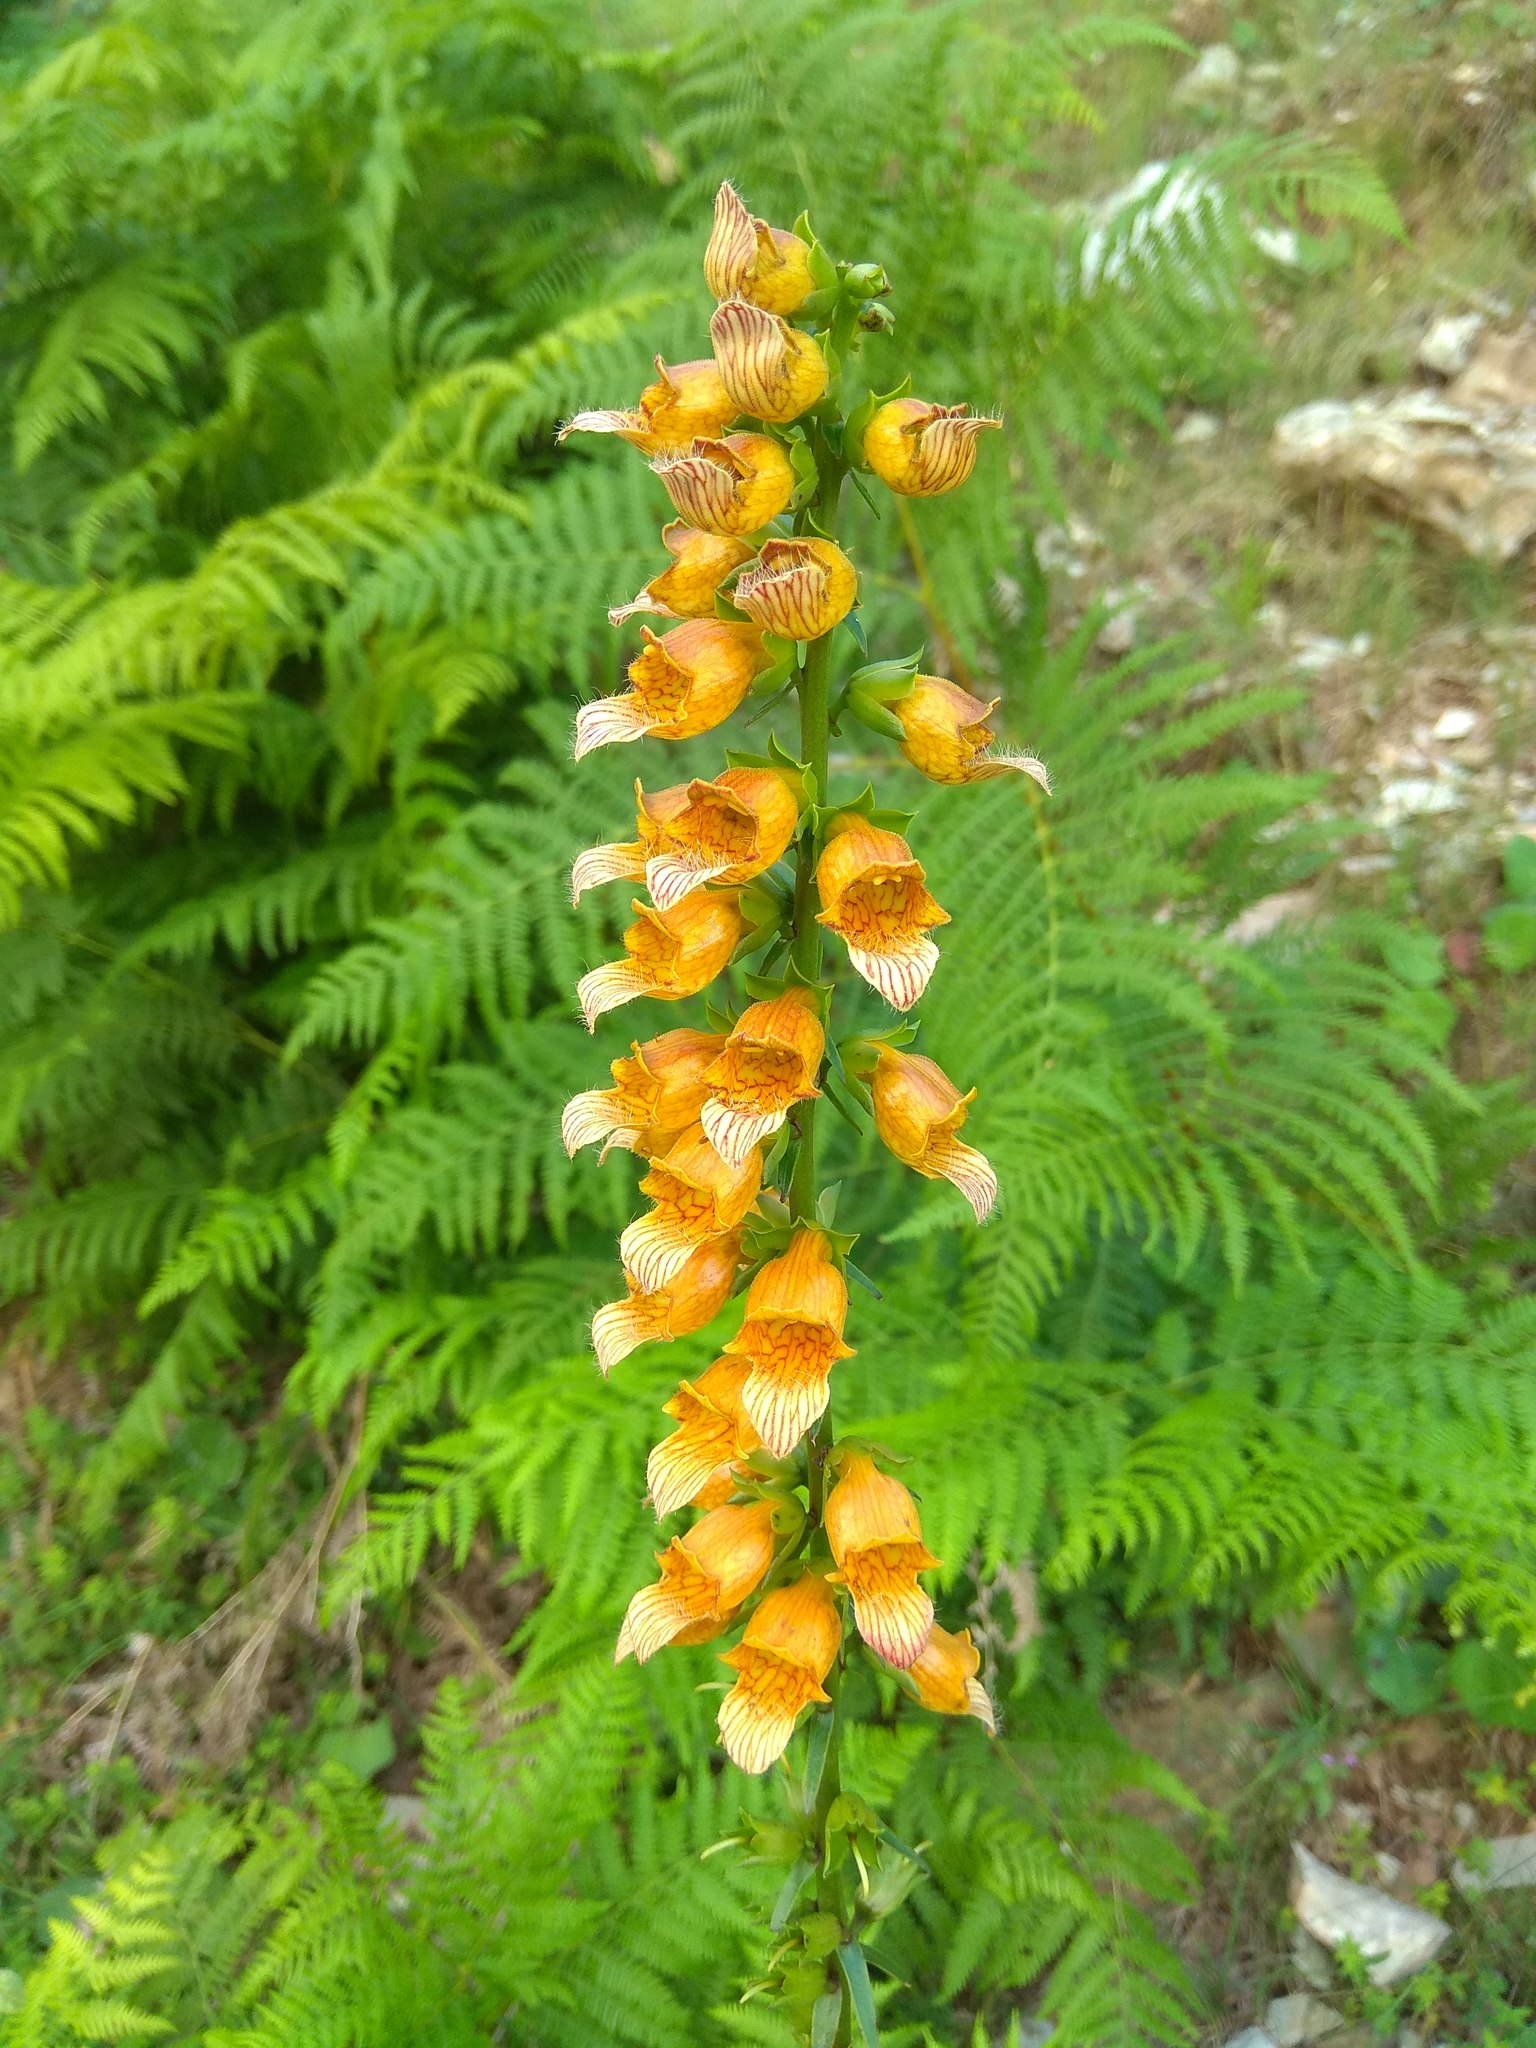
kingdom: Plantae
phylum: Tracheophyta
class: Magnoliopsida
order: Lamiales
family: Plantaginaceae
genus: Digitalis
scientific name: Digitalis laevigata
